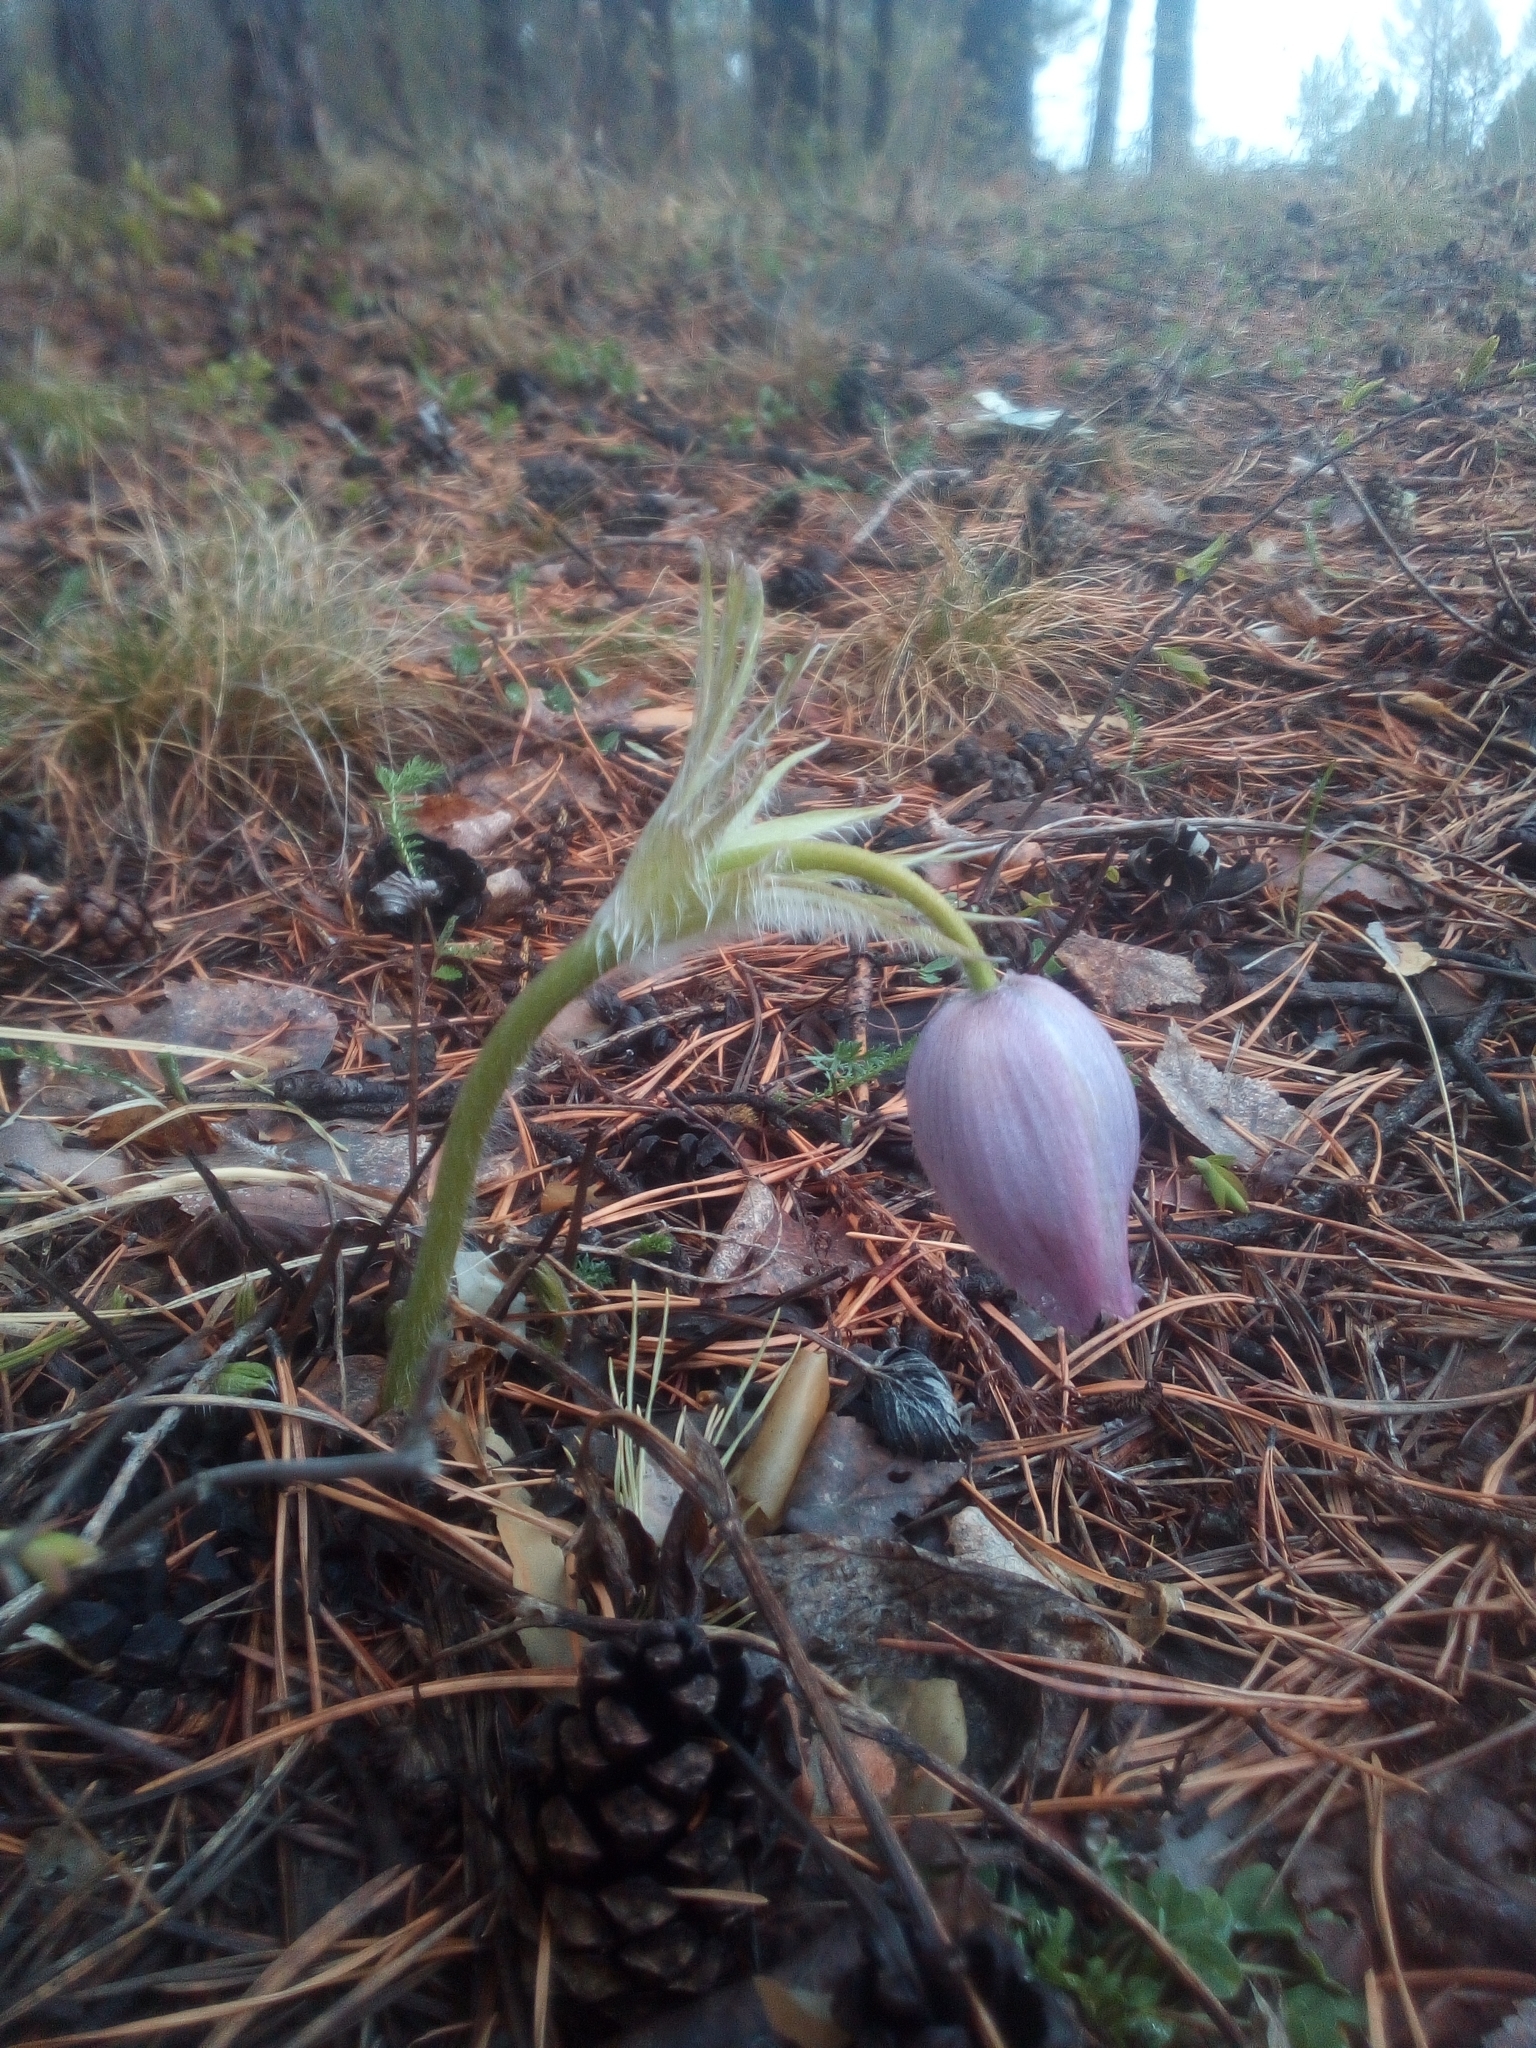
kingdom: Plantae
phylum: Tracheophyta
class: Magnoliopsida
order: Ranunculales
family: Ranunculaceae
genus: Pulsatilla
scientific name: Pulsatilla patens
